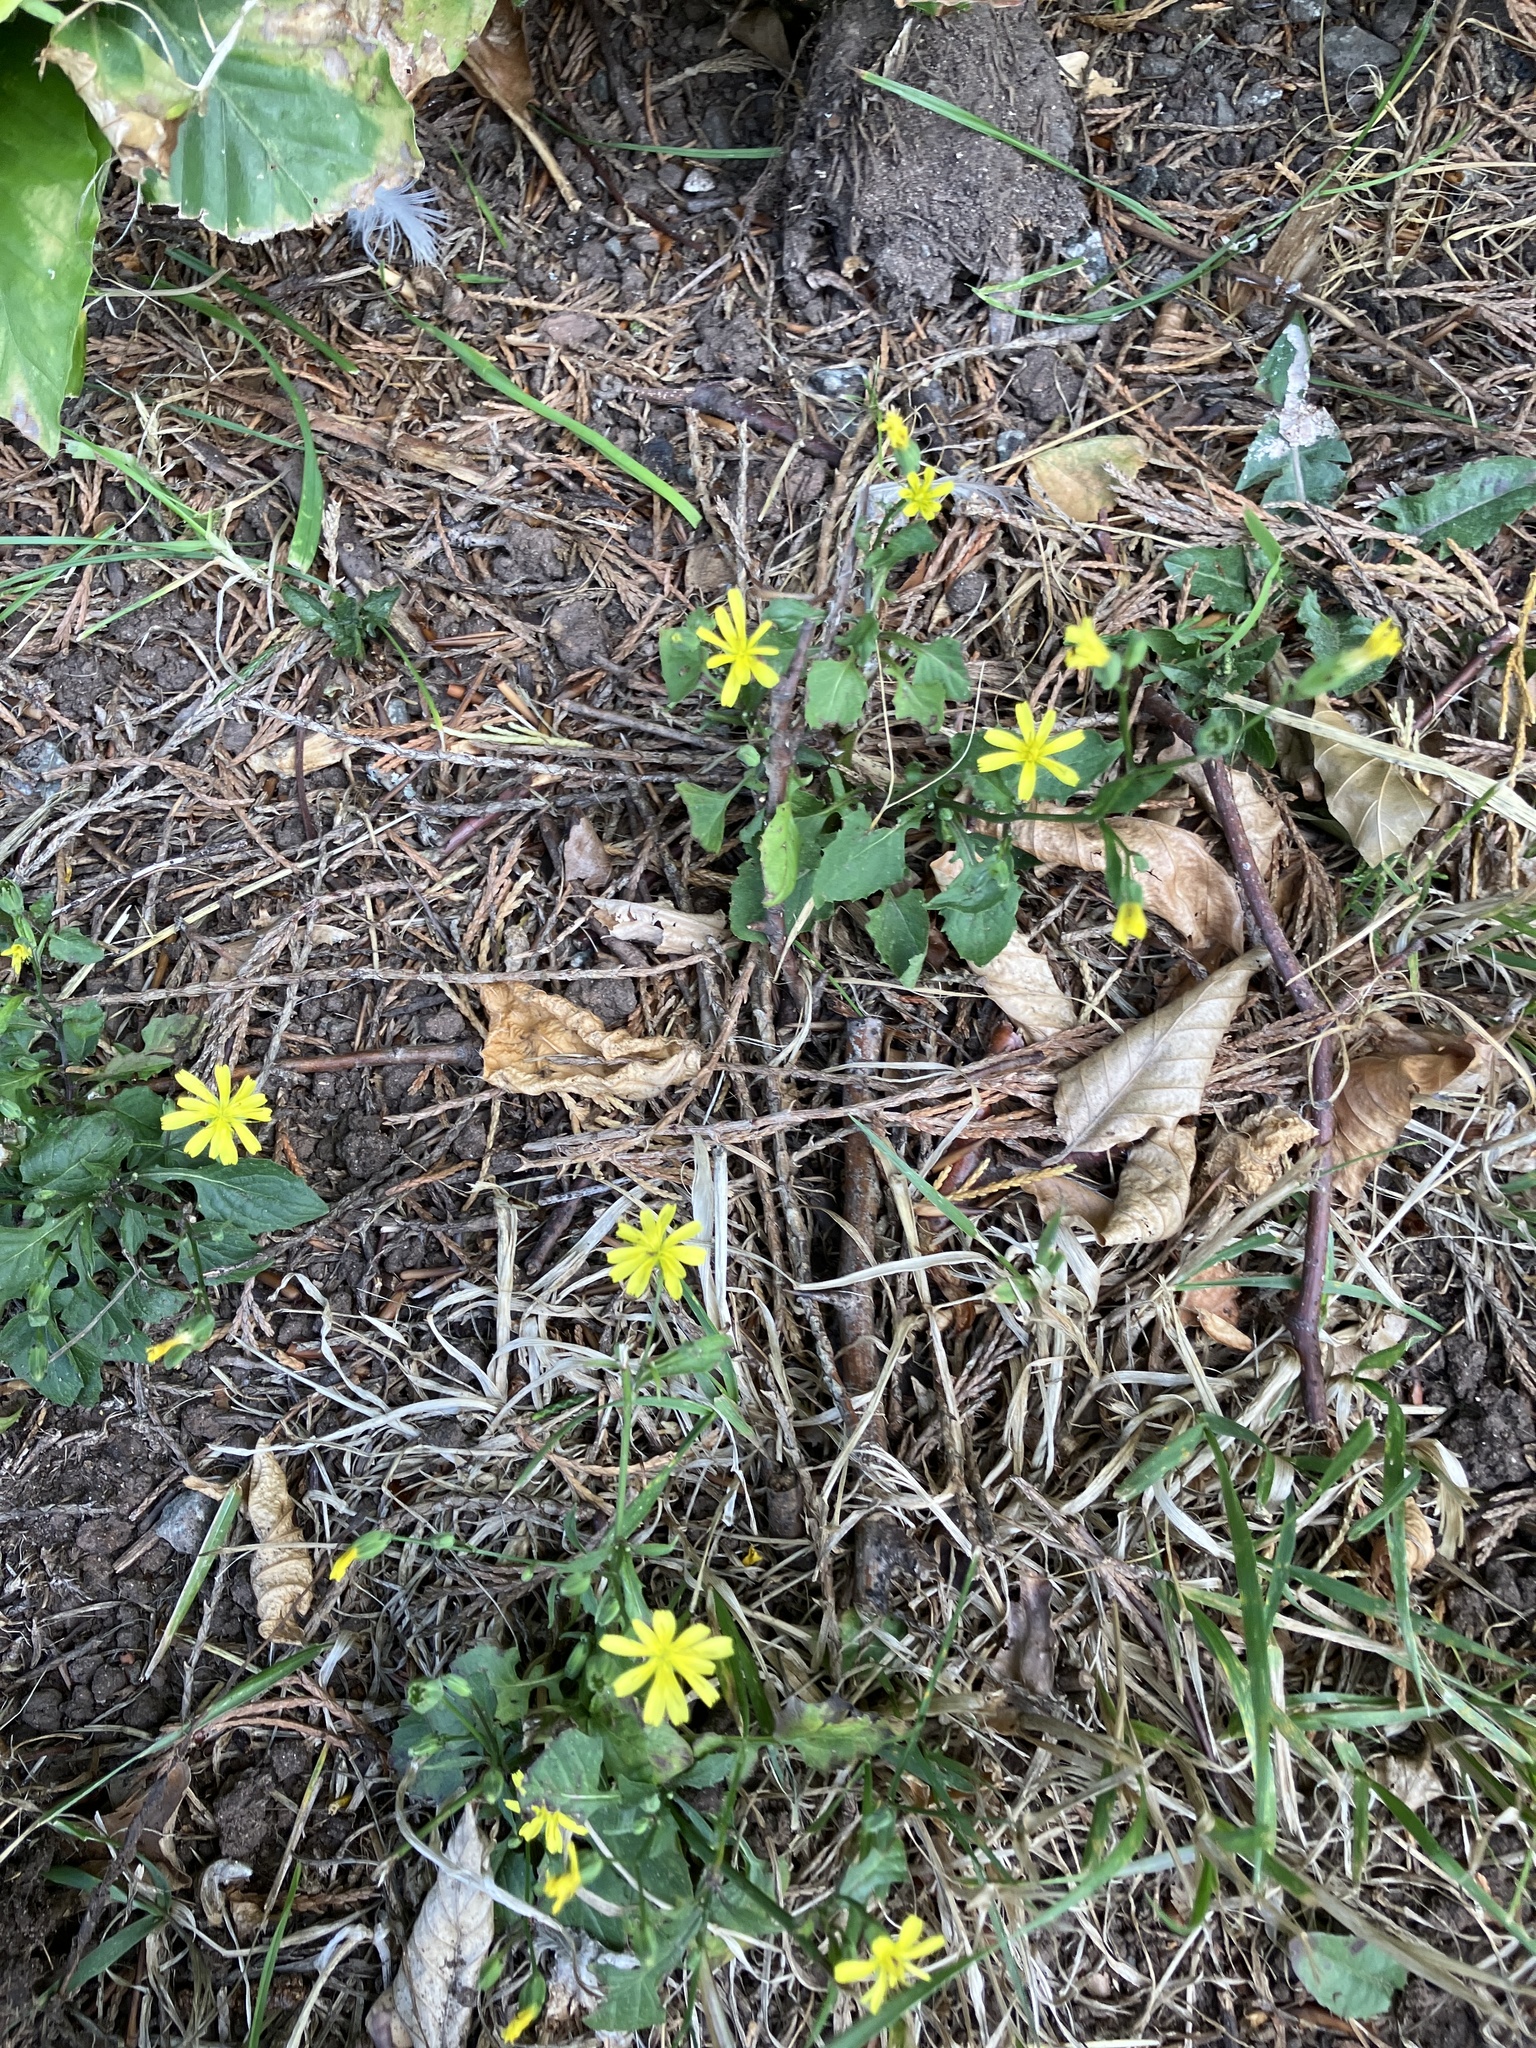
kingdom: Plantae
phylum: Tracheophyta
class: Magnoliopsida
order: Asterales
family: Asteraceae
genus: Lapsana
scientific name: Lapsana communis
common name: Nipplewort
